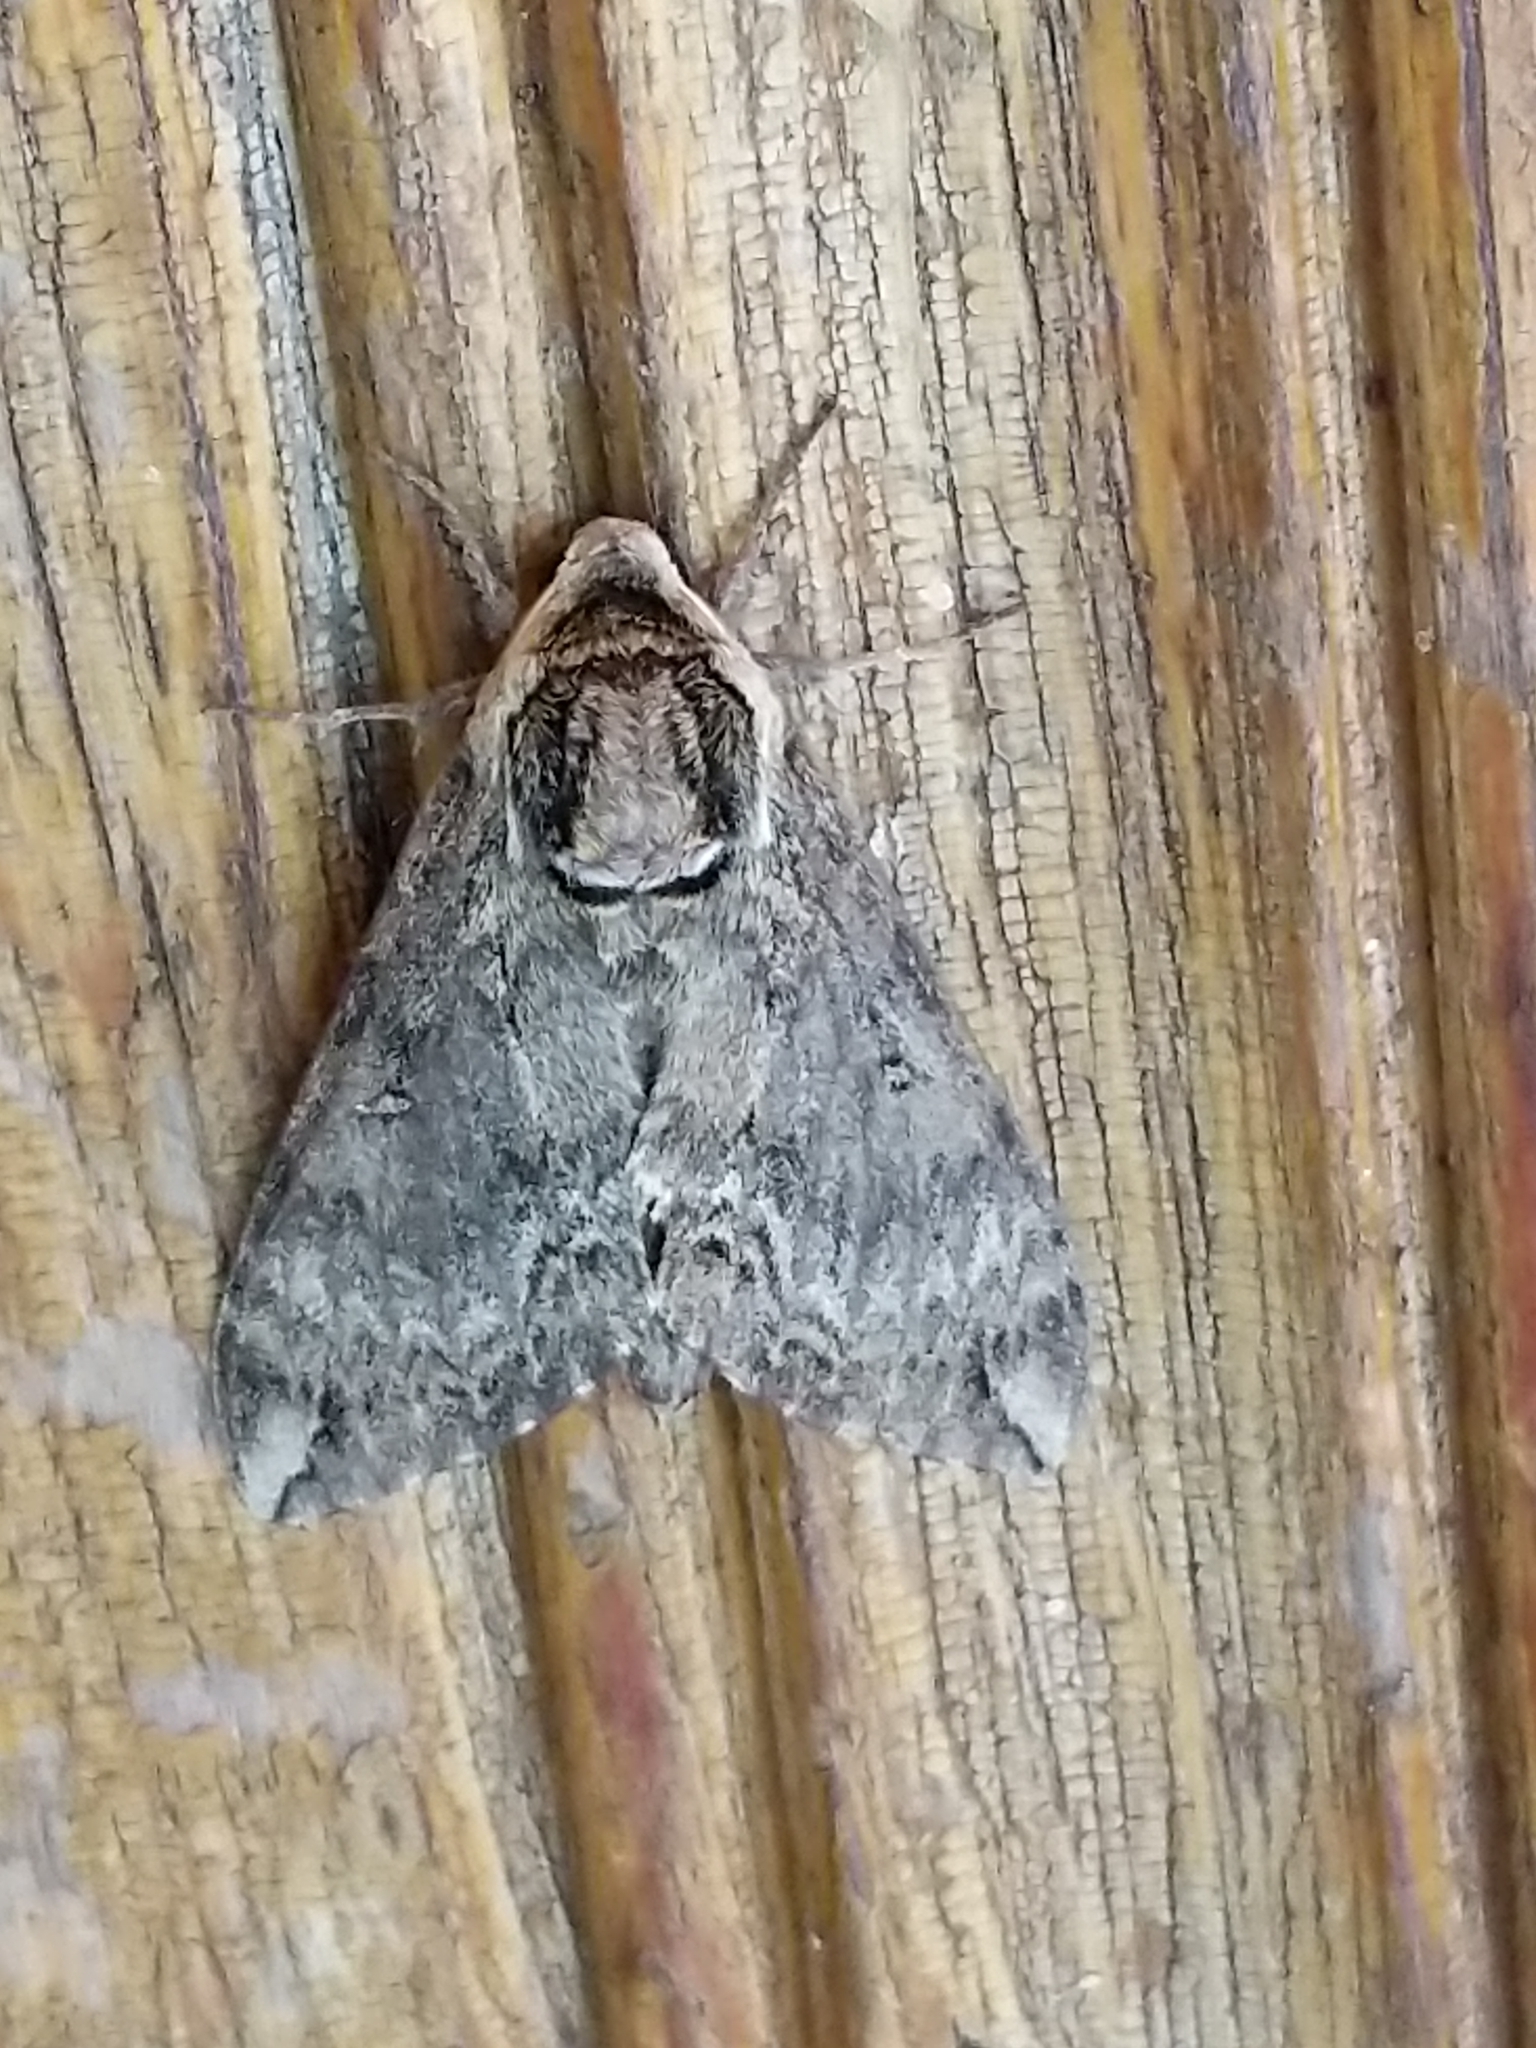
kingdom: Animalia
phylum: Arthropoda
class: Insecta
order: Lepidoptera
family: Sphingidae
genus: Ceratomia
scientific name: Ceratomia catalpae
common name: Catalpa hornworm
